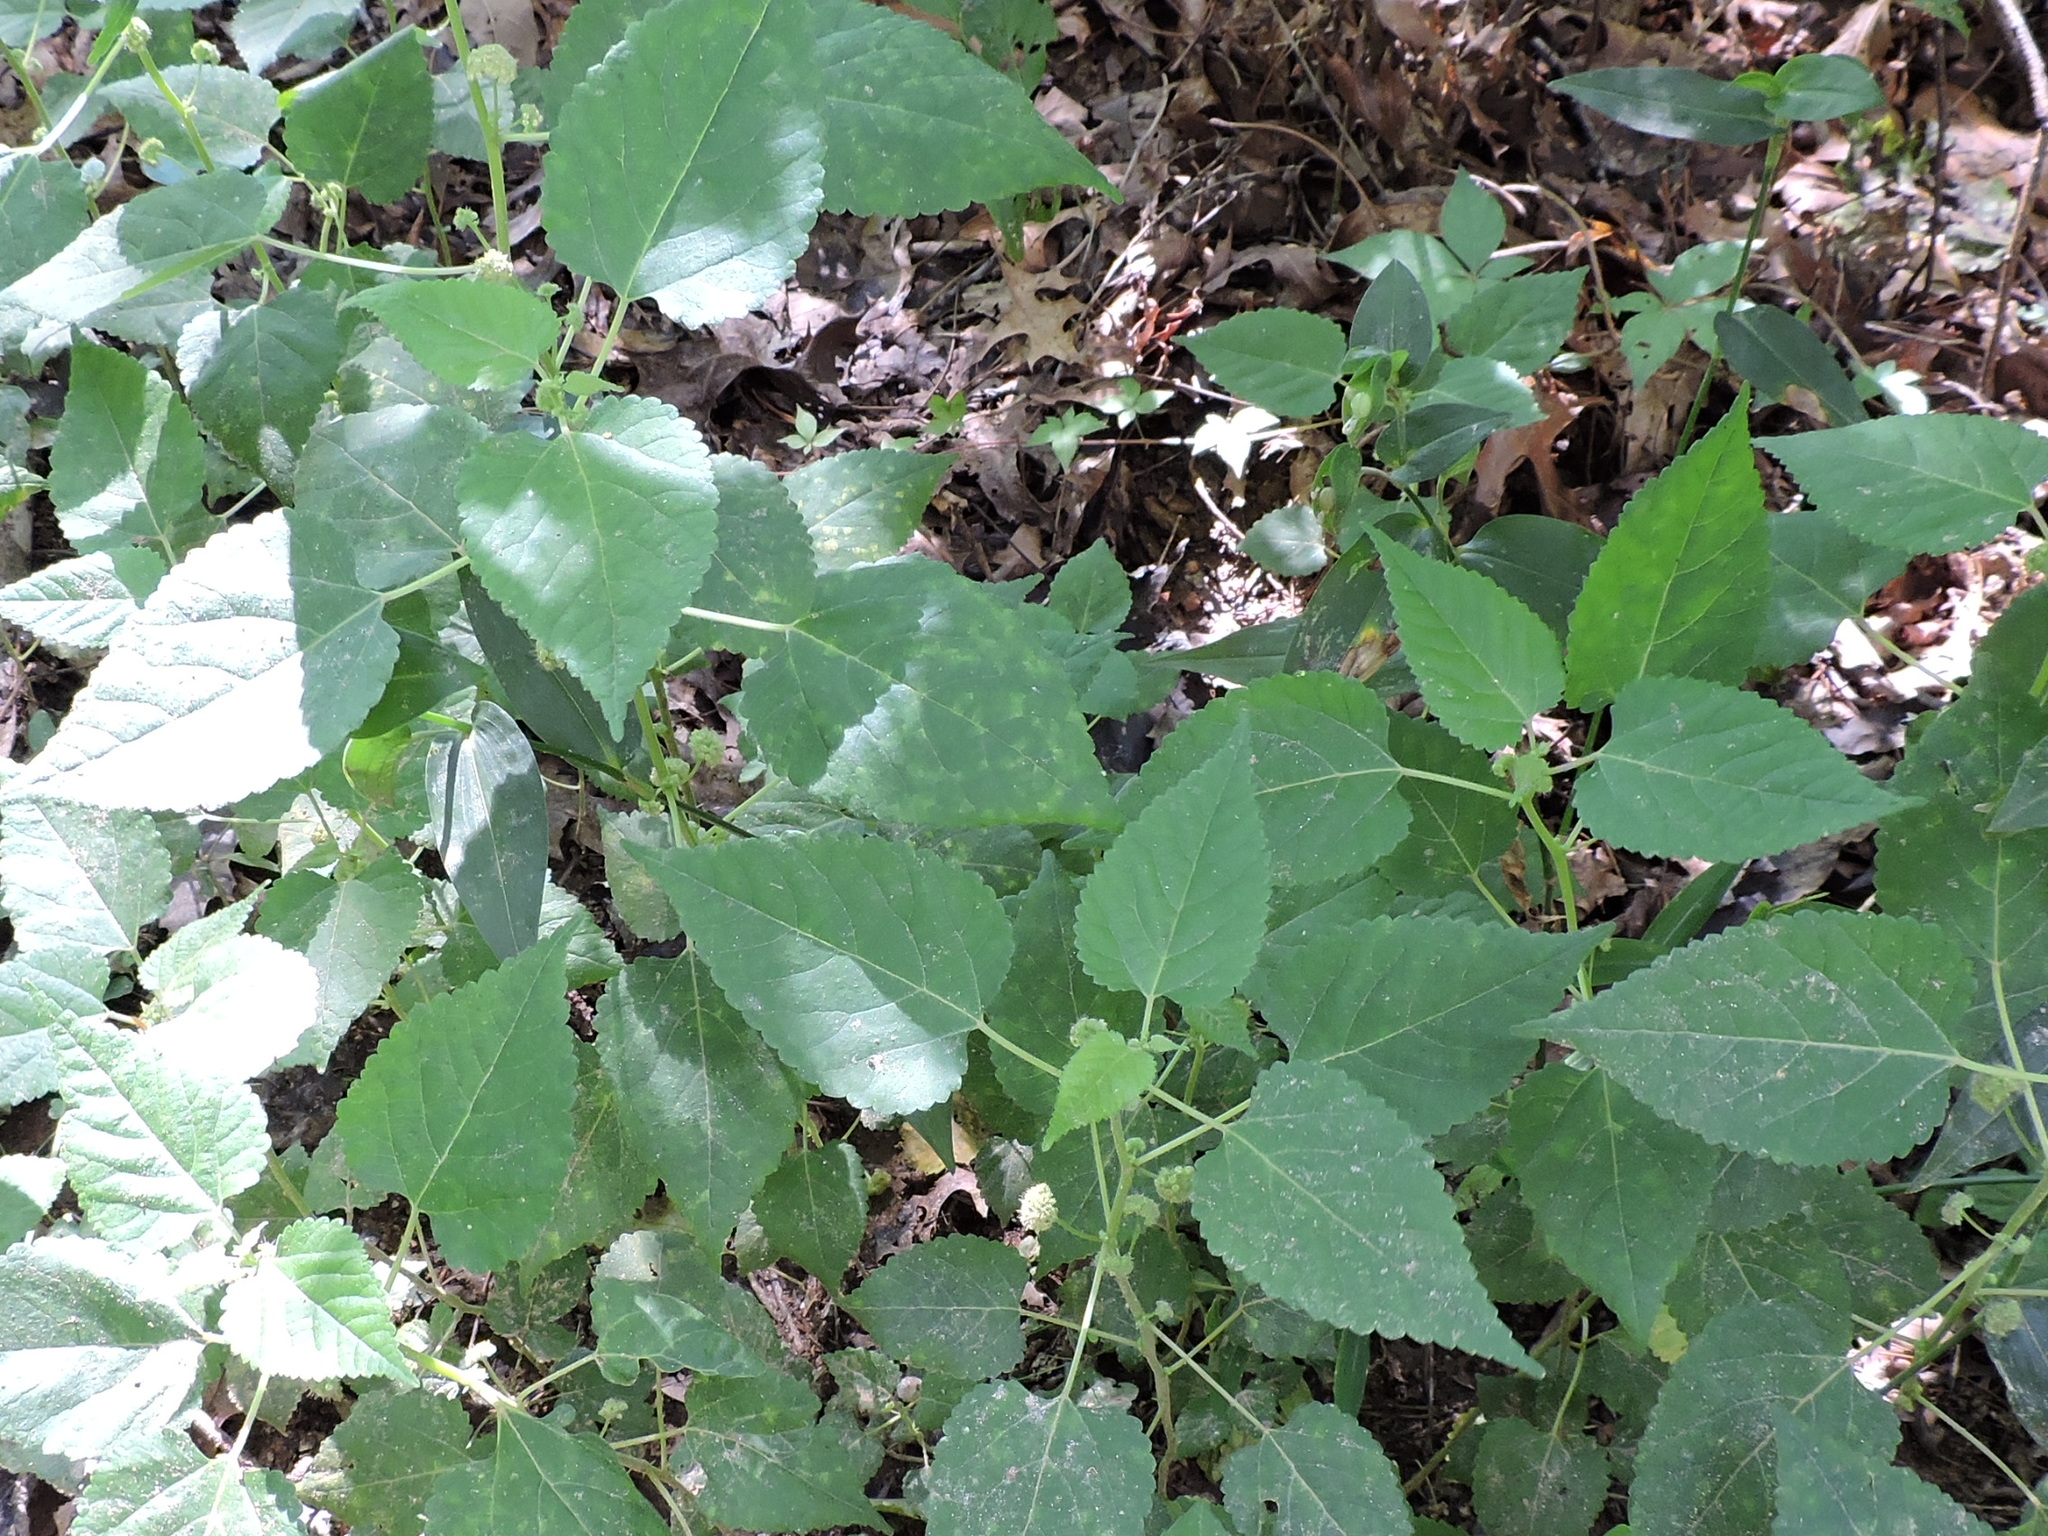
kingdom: Plantae
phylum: Tracheophyta
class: Magnoliopsida
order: Rosales
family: Moraceae
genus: Fatoua
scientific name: Fatoua villosa
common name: Hairy crabweed
